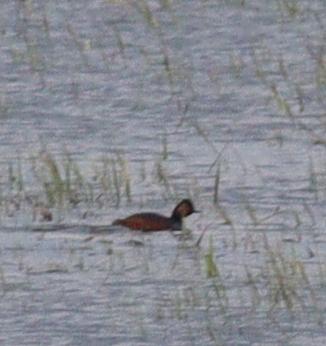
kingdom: Animalia
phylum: Chordata
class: Aves
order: Podicipediformes
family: Podicipedidae
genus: Podiceps
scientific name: Podiceps nigricollis
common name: Black-necked grebe
